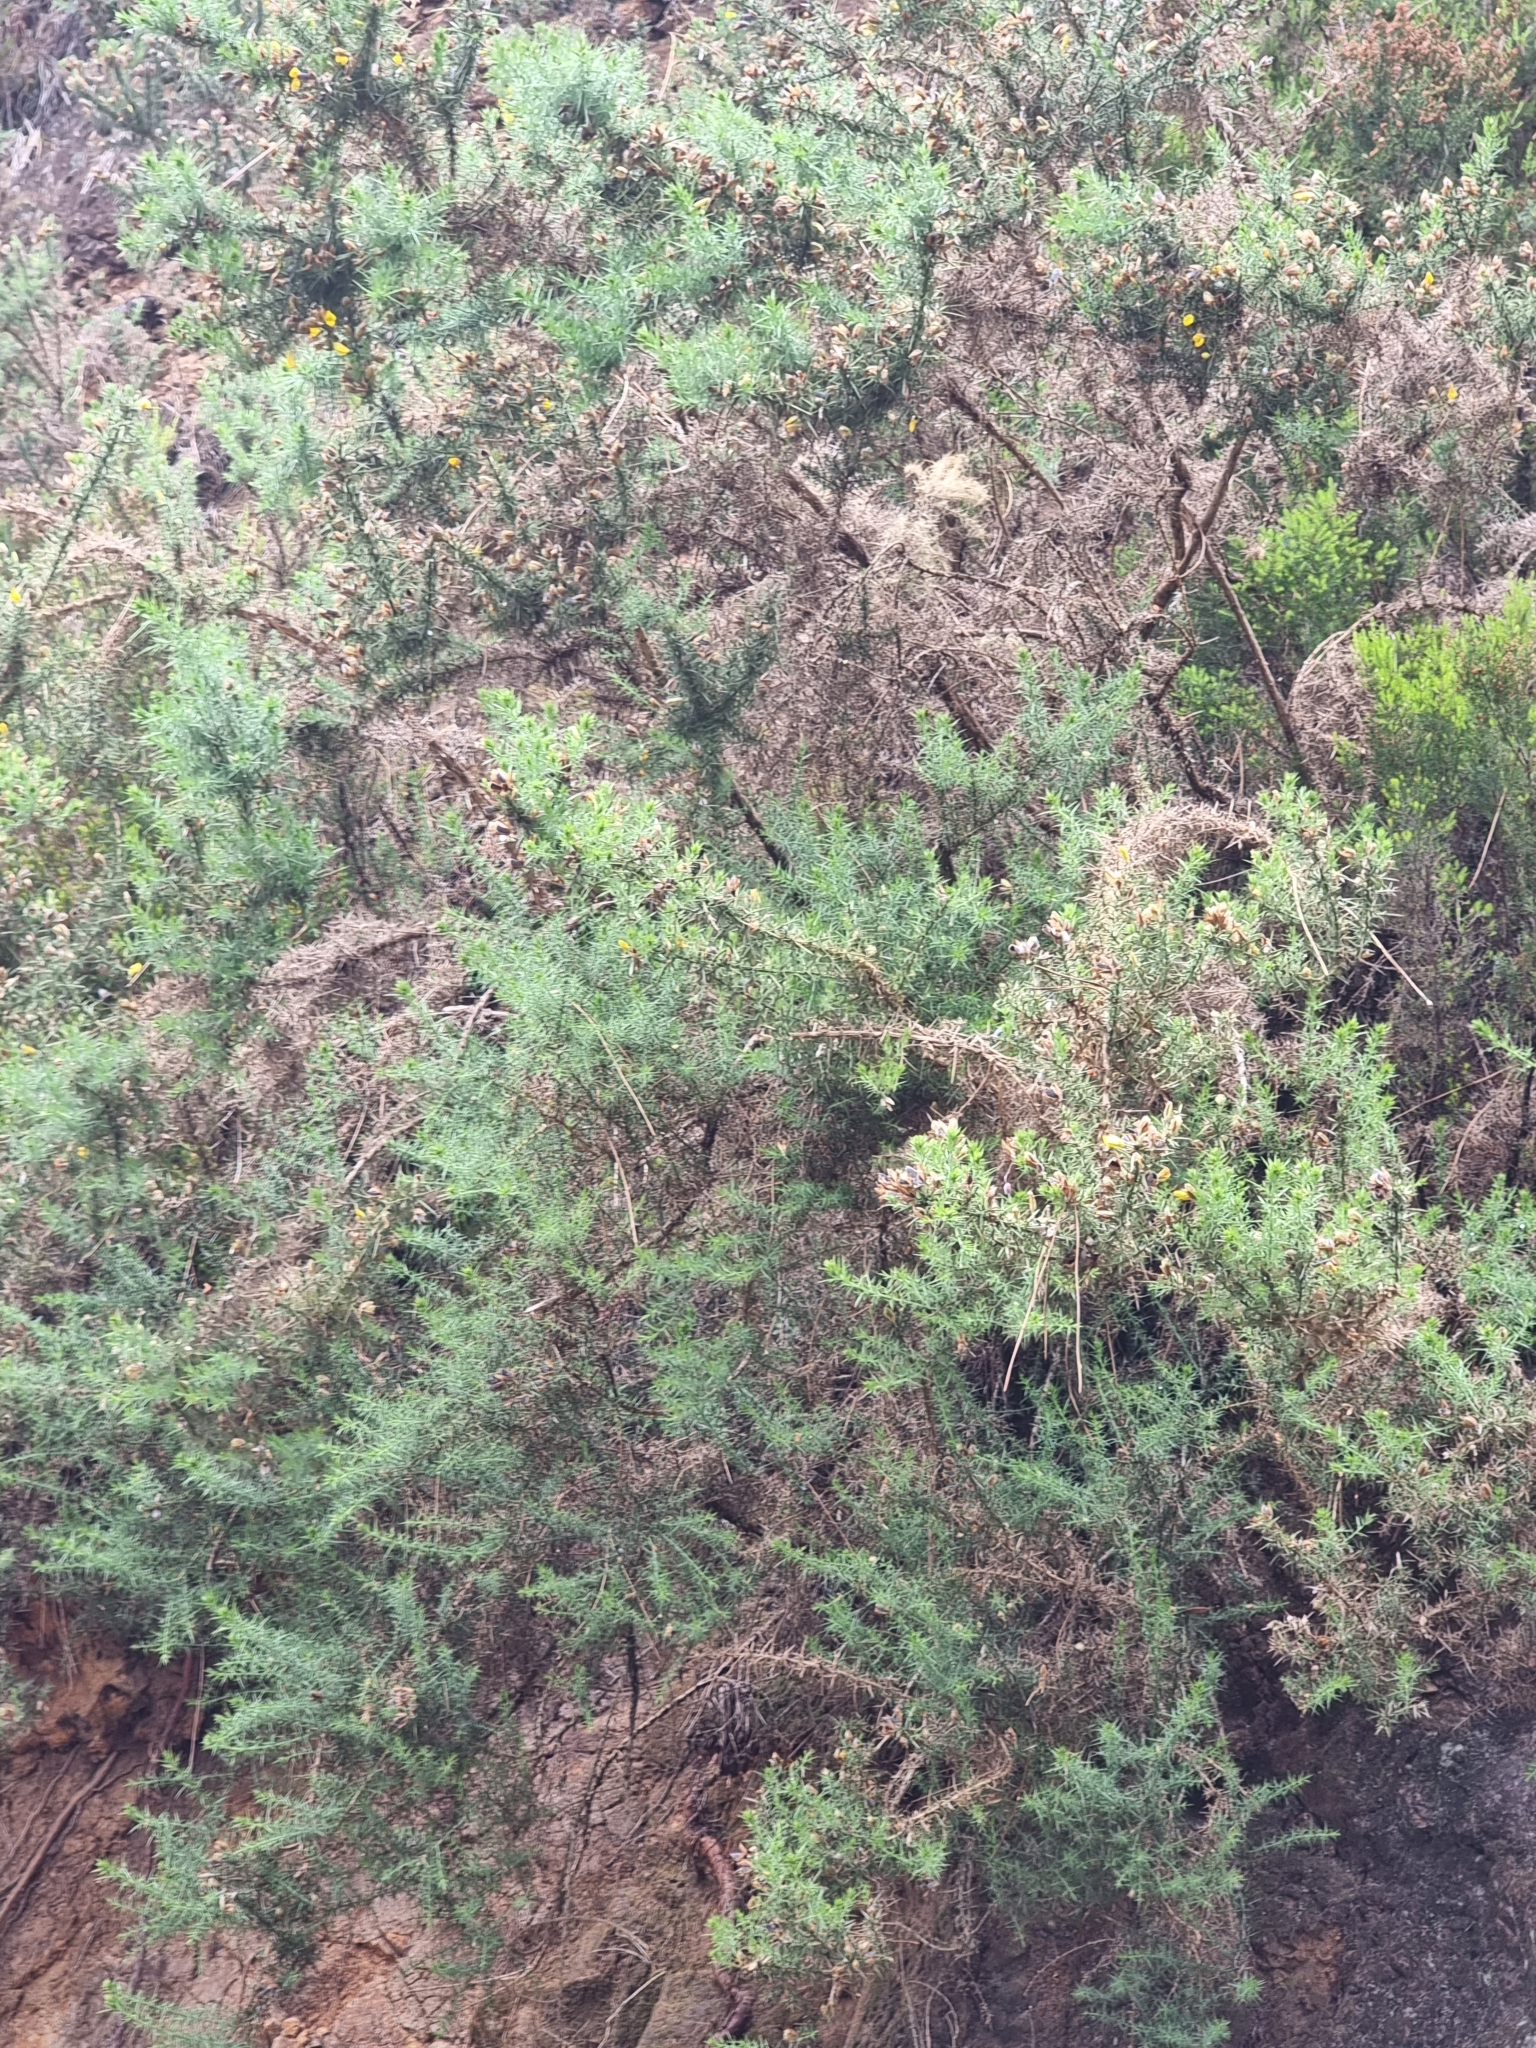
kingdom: Plantae
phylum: Tracheophyta
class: Magnoliopsida
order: Fabales
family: Fabaceae
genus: Ulex
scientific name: Ulex europaeus
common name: Common gorse
